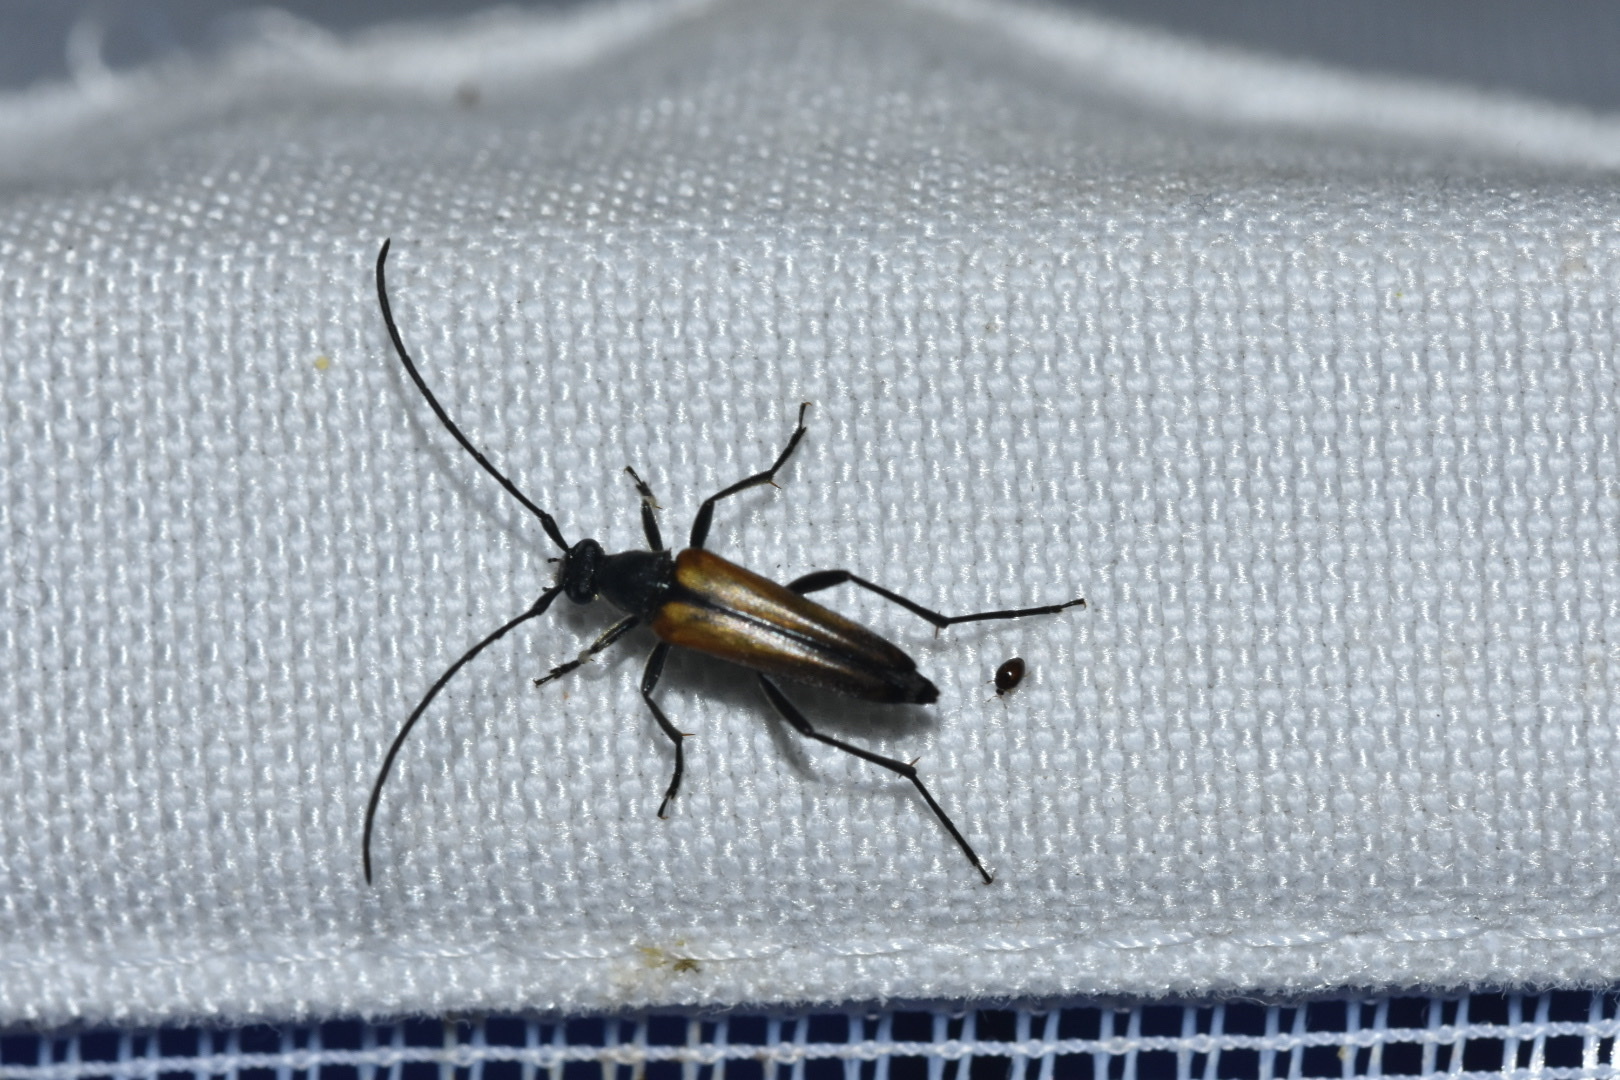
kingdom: Animalia
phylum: Arthropoda
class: Insecta
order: Coleoptera
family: Cerambycidae
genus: Stenurella
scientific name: Stenurella melanura
